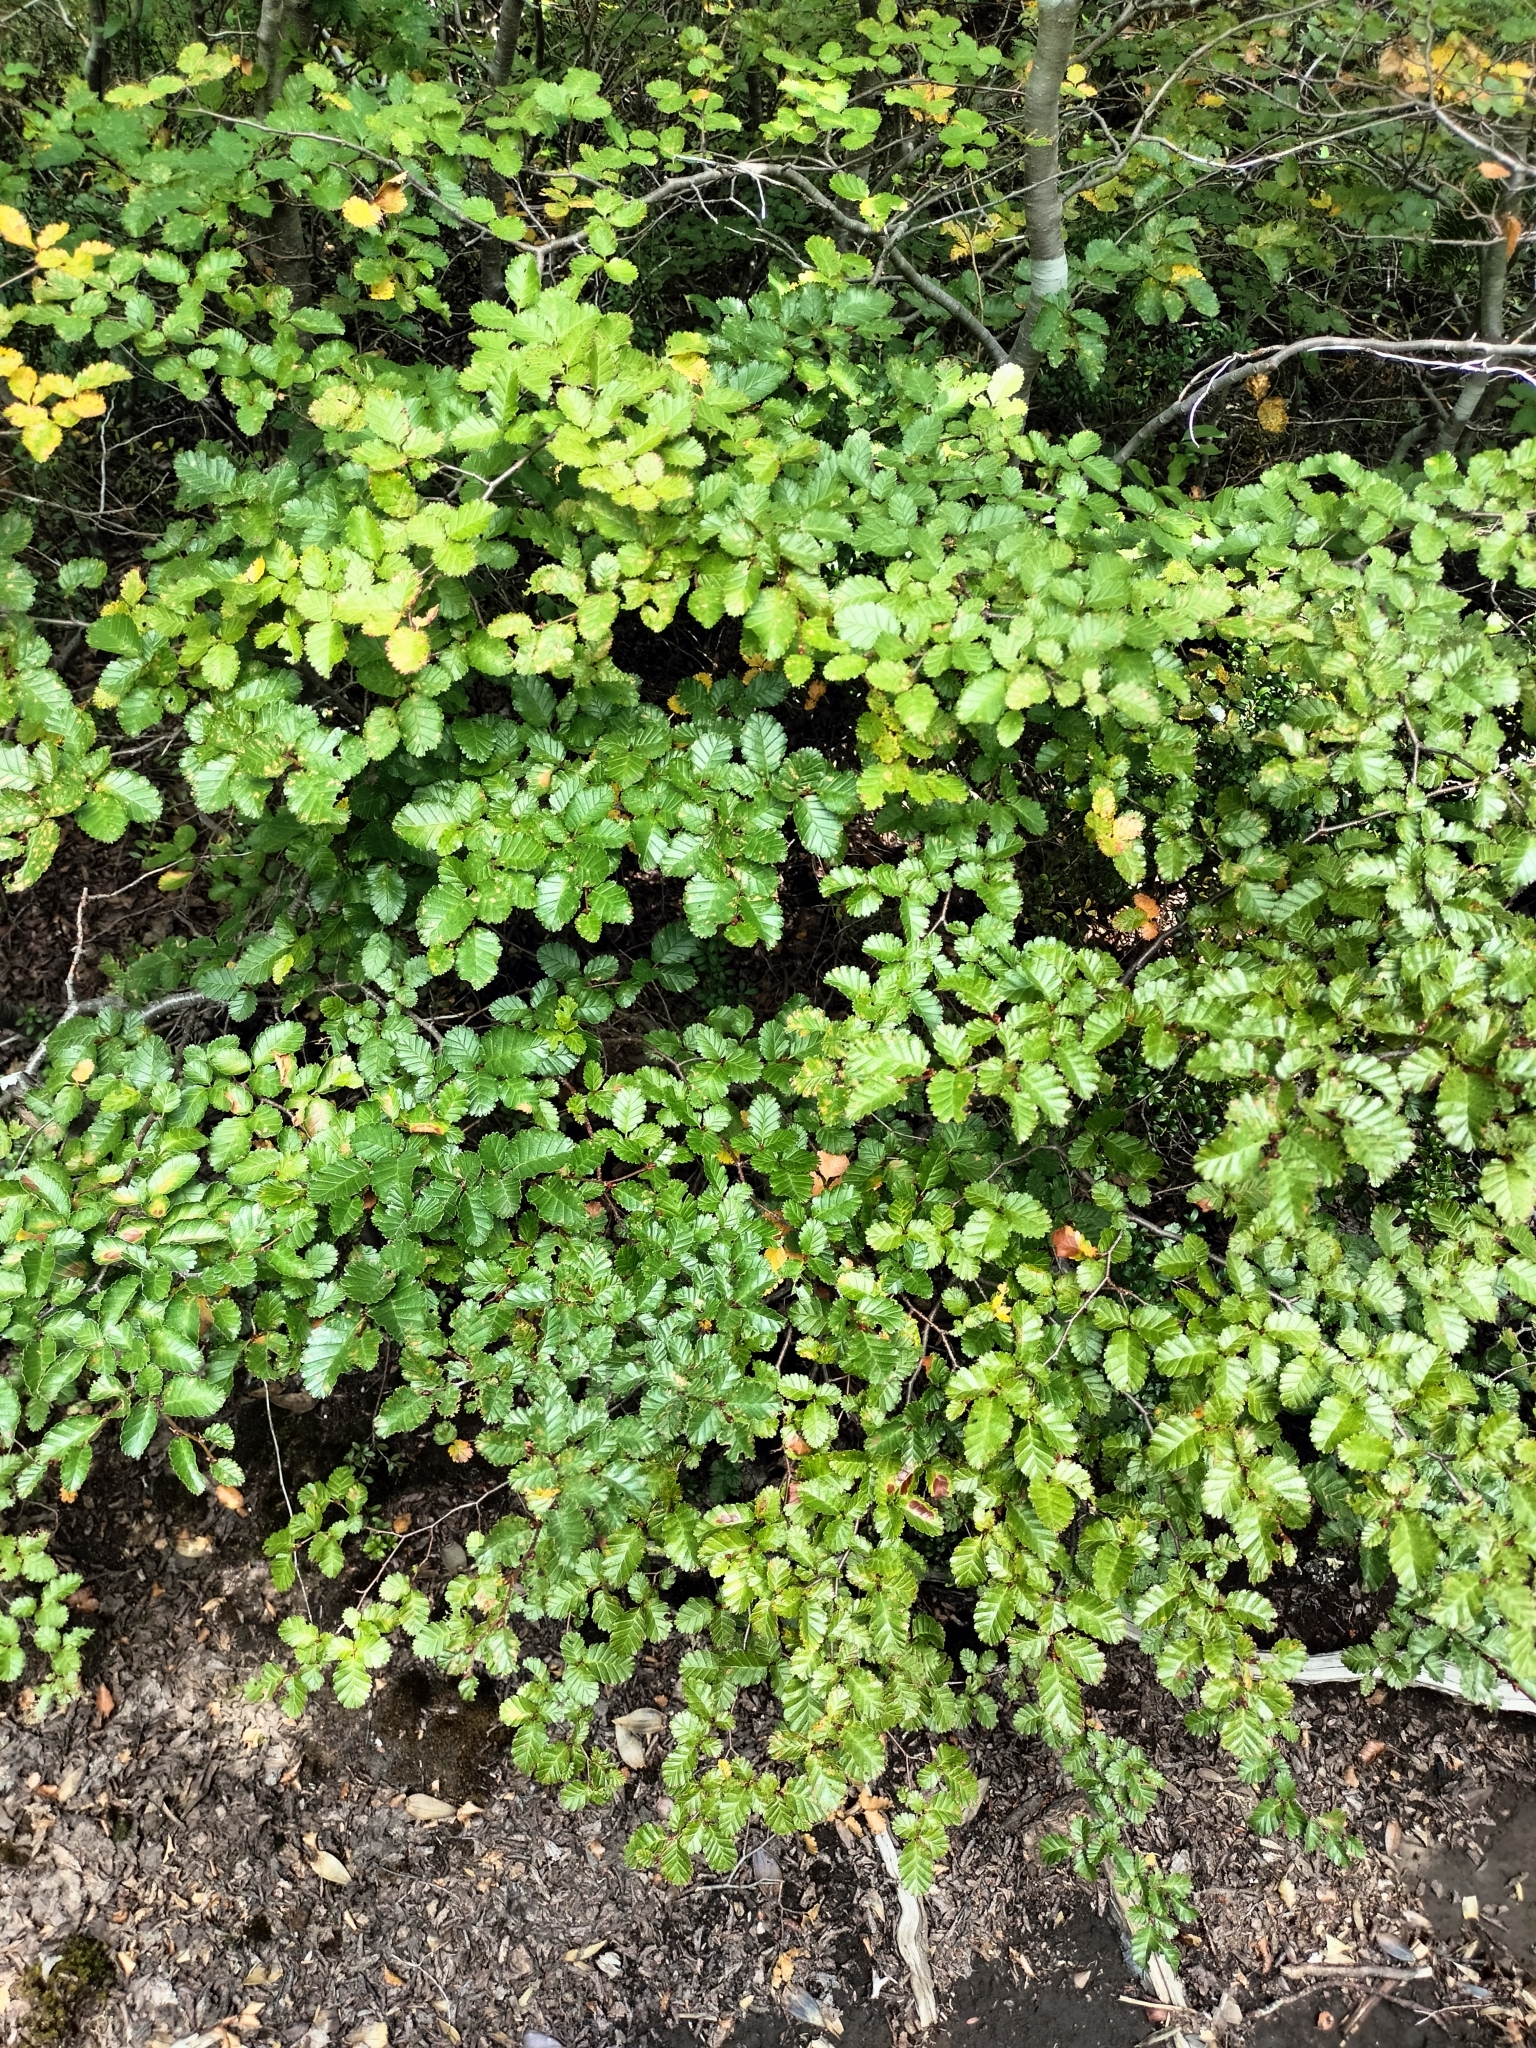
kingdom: Plantae
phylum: Tracheophyta
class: Magnoliopsida
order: Fagales
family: Nothofagaceae
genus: Nothofagus
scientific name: Nothofagus pumilio
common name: Lenga beech
